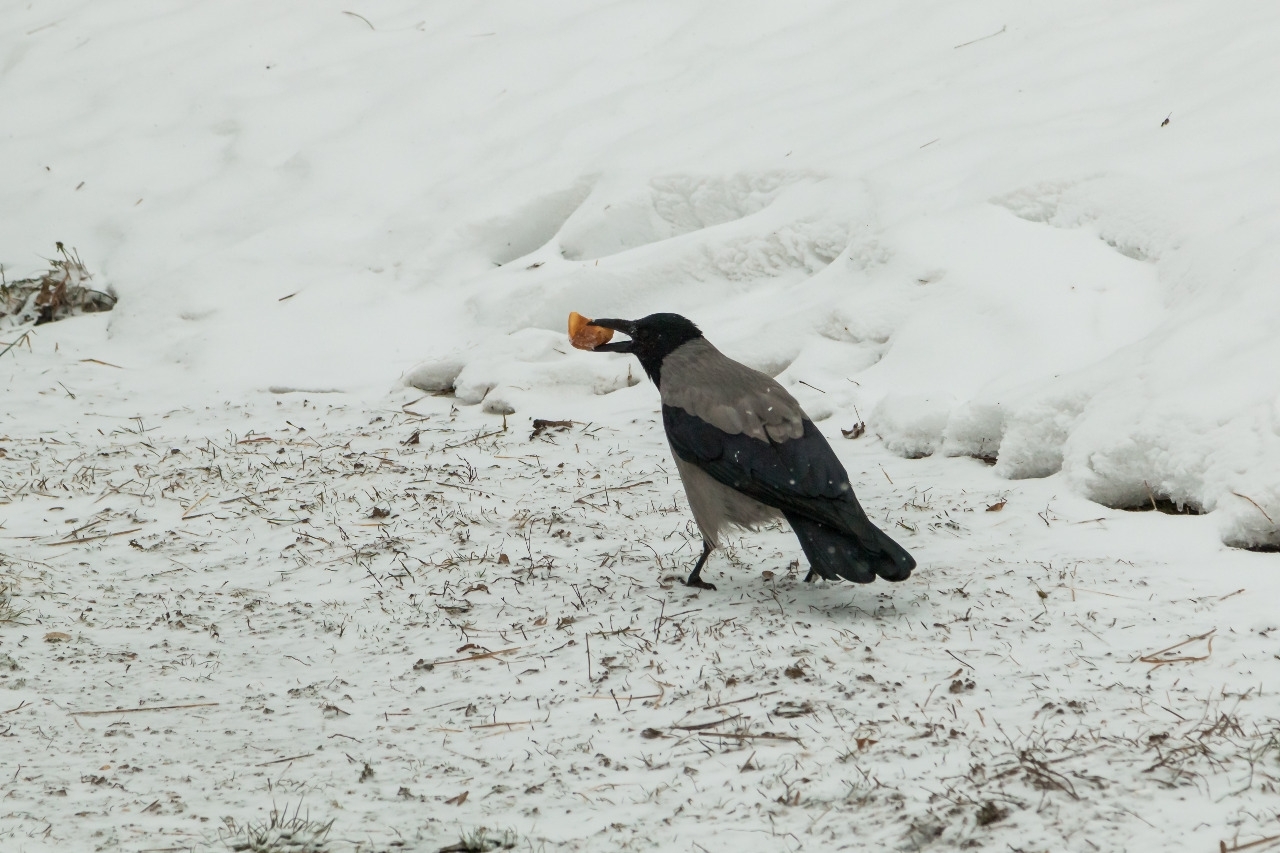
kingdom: Animalia
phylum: Chordata
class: Aves
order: Passeriformes
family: Corvidae
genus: Corvus
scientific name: Corvus cornix
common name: Hooded crow
